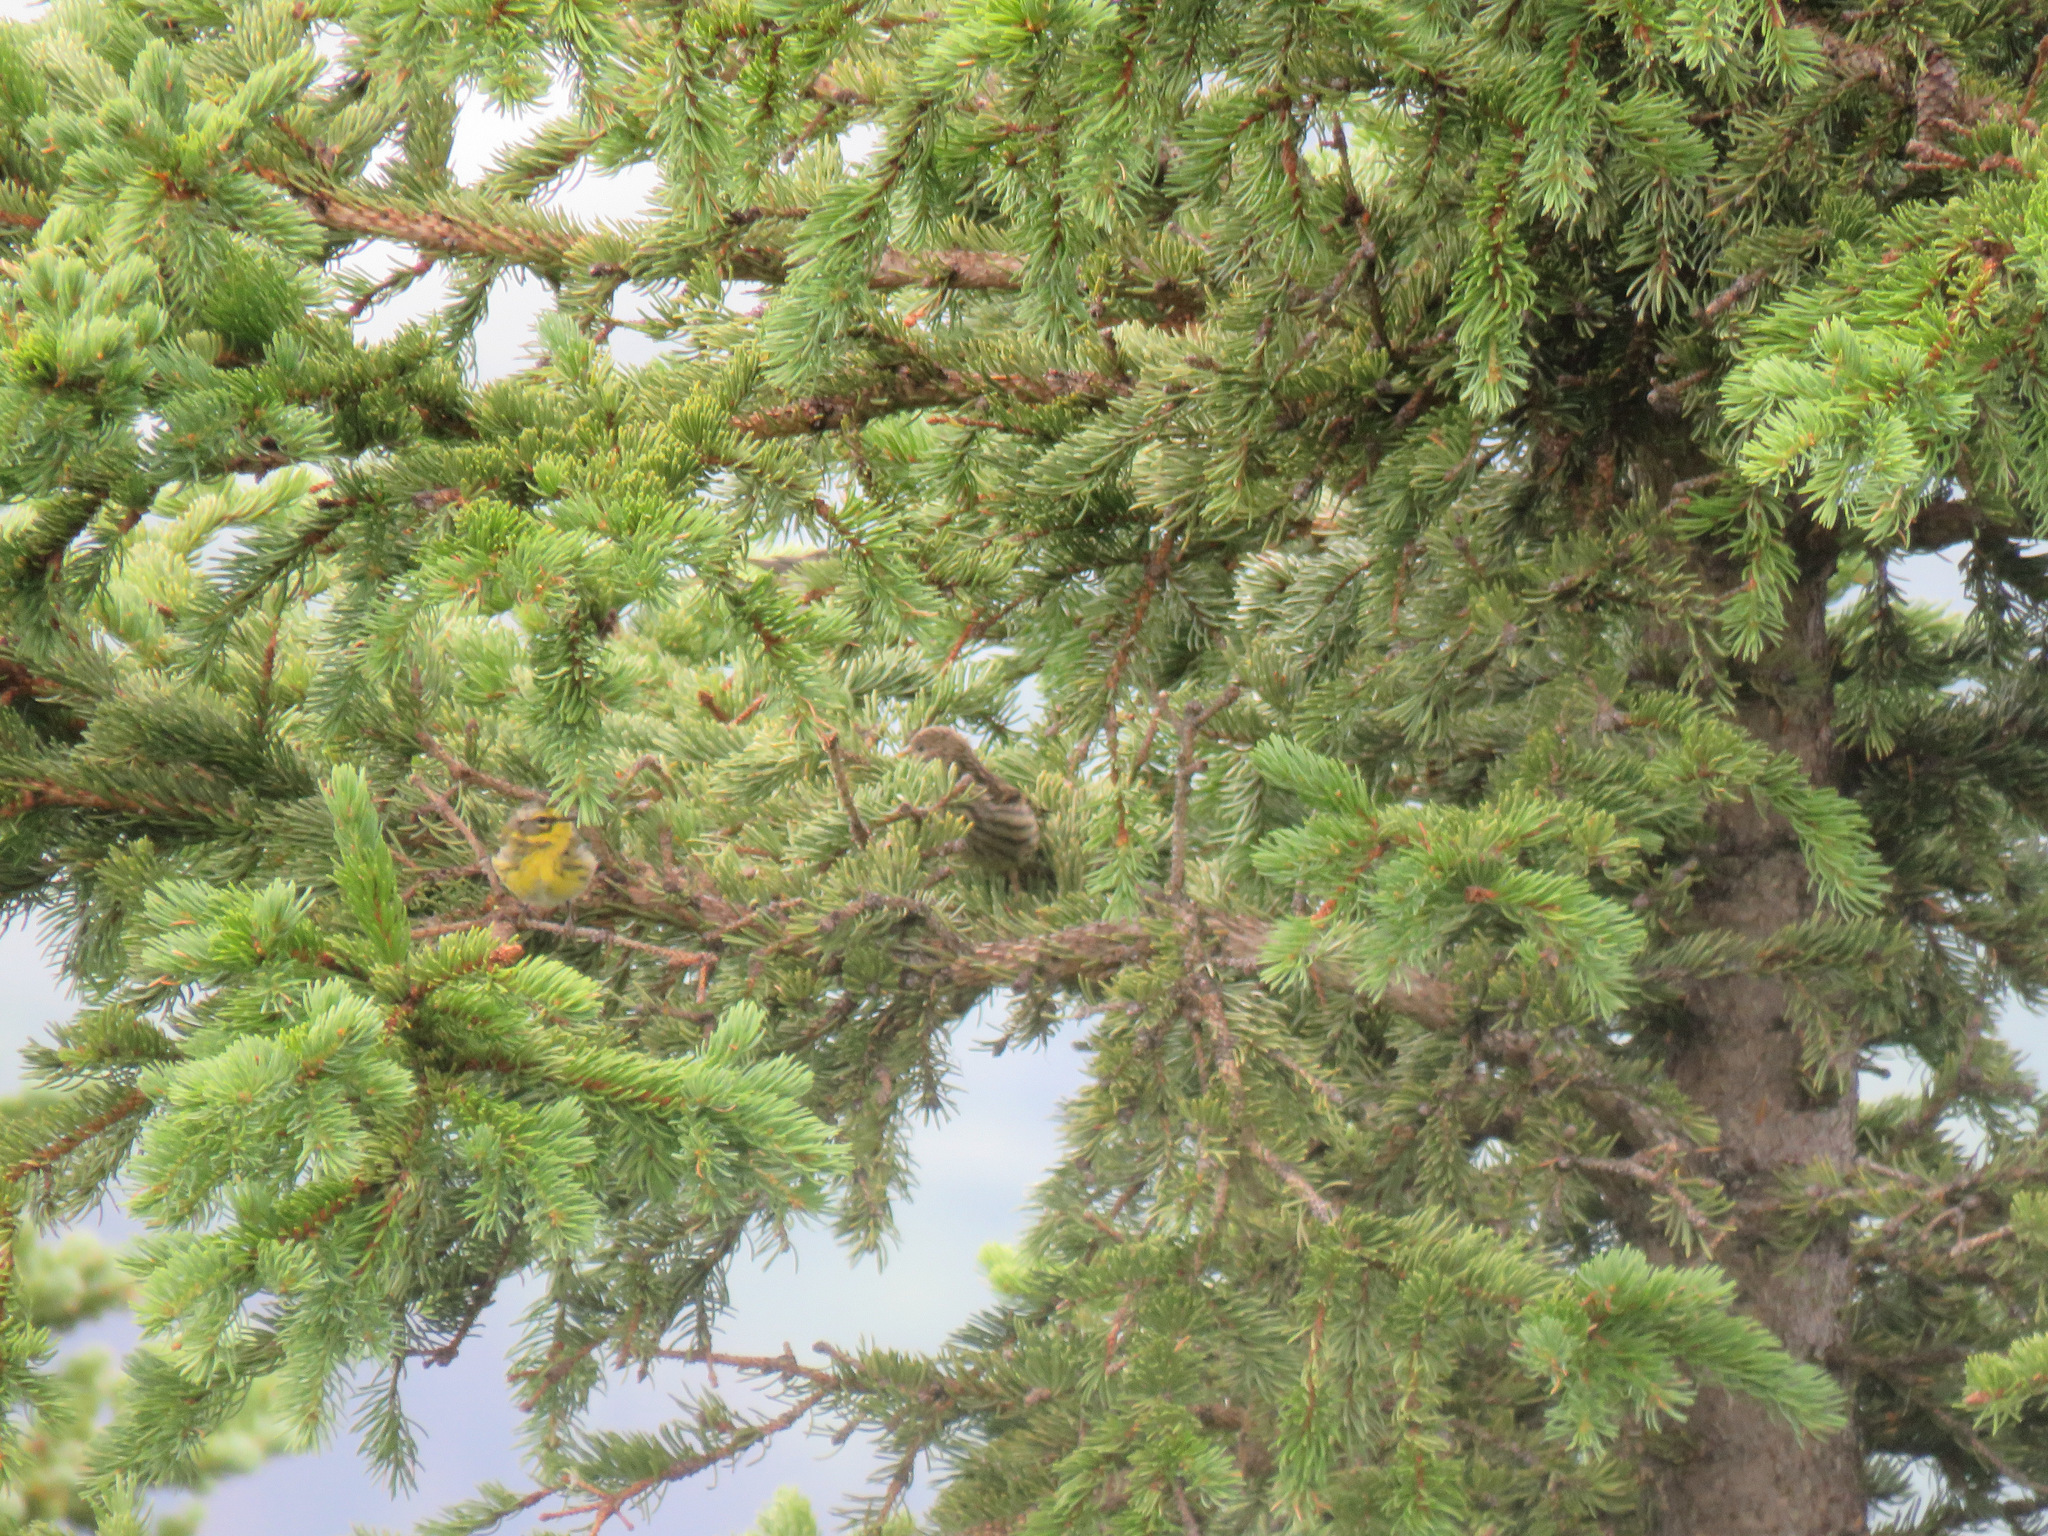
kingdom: Animalia
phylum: Chordata
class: Aves
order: Passeriformes
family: Parulidae
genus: Setophaga
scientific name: Setophaga townsendi
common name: Townsend's warbler
